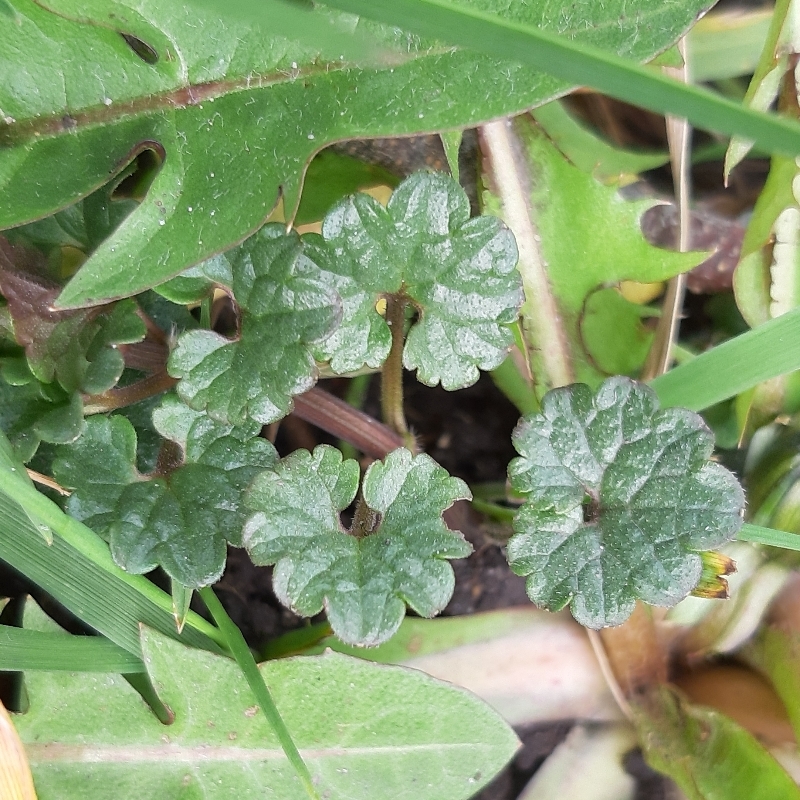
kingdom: Plantae
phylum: Tracheophyta
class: Magnoliopsida
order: Lamiales
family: Lamiaceae
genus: Glechoma
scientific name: Glechoma hederacea
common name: Ground ivy
